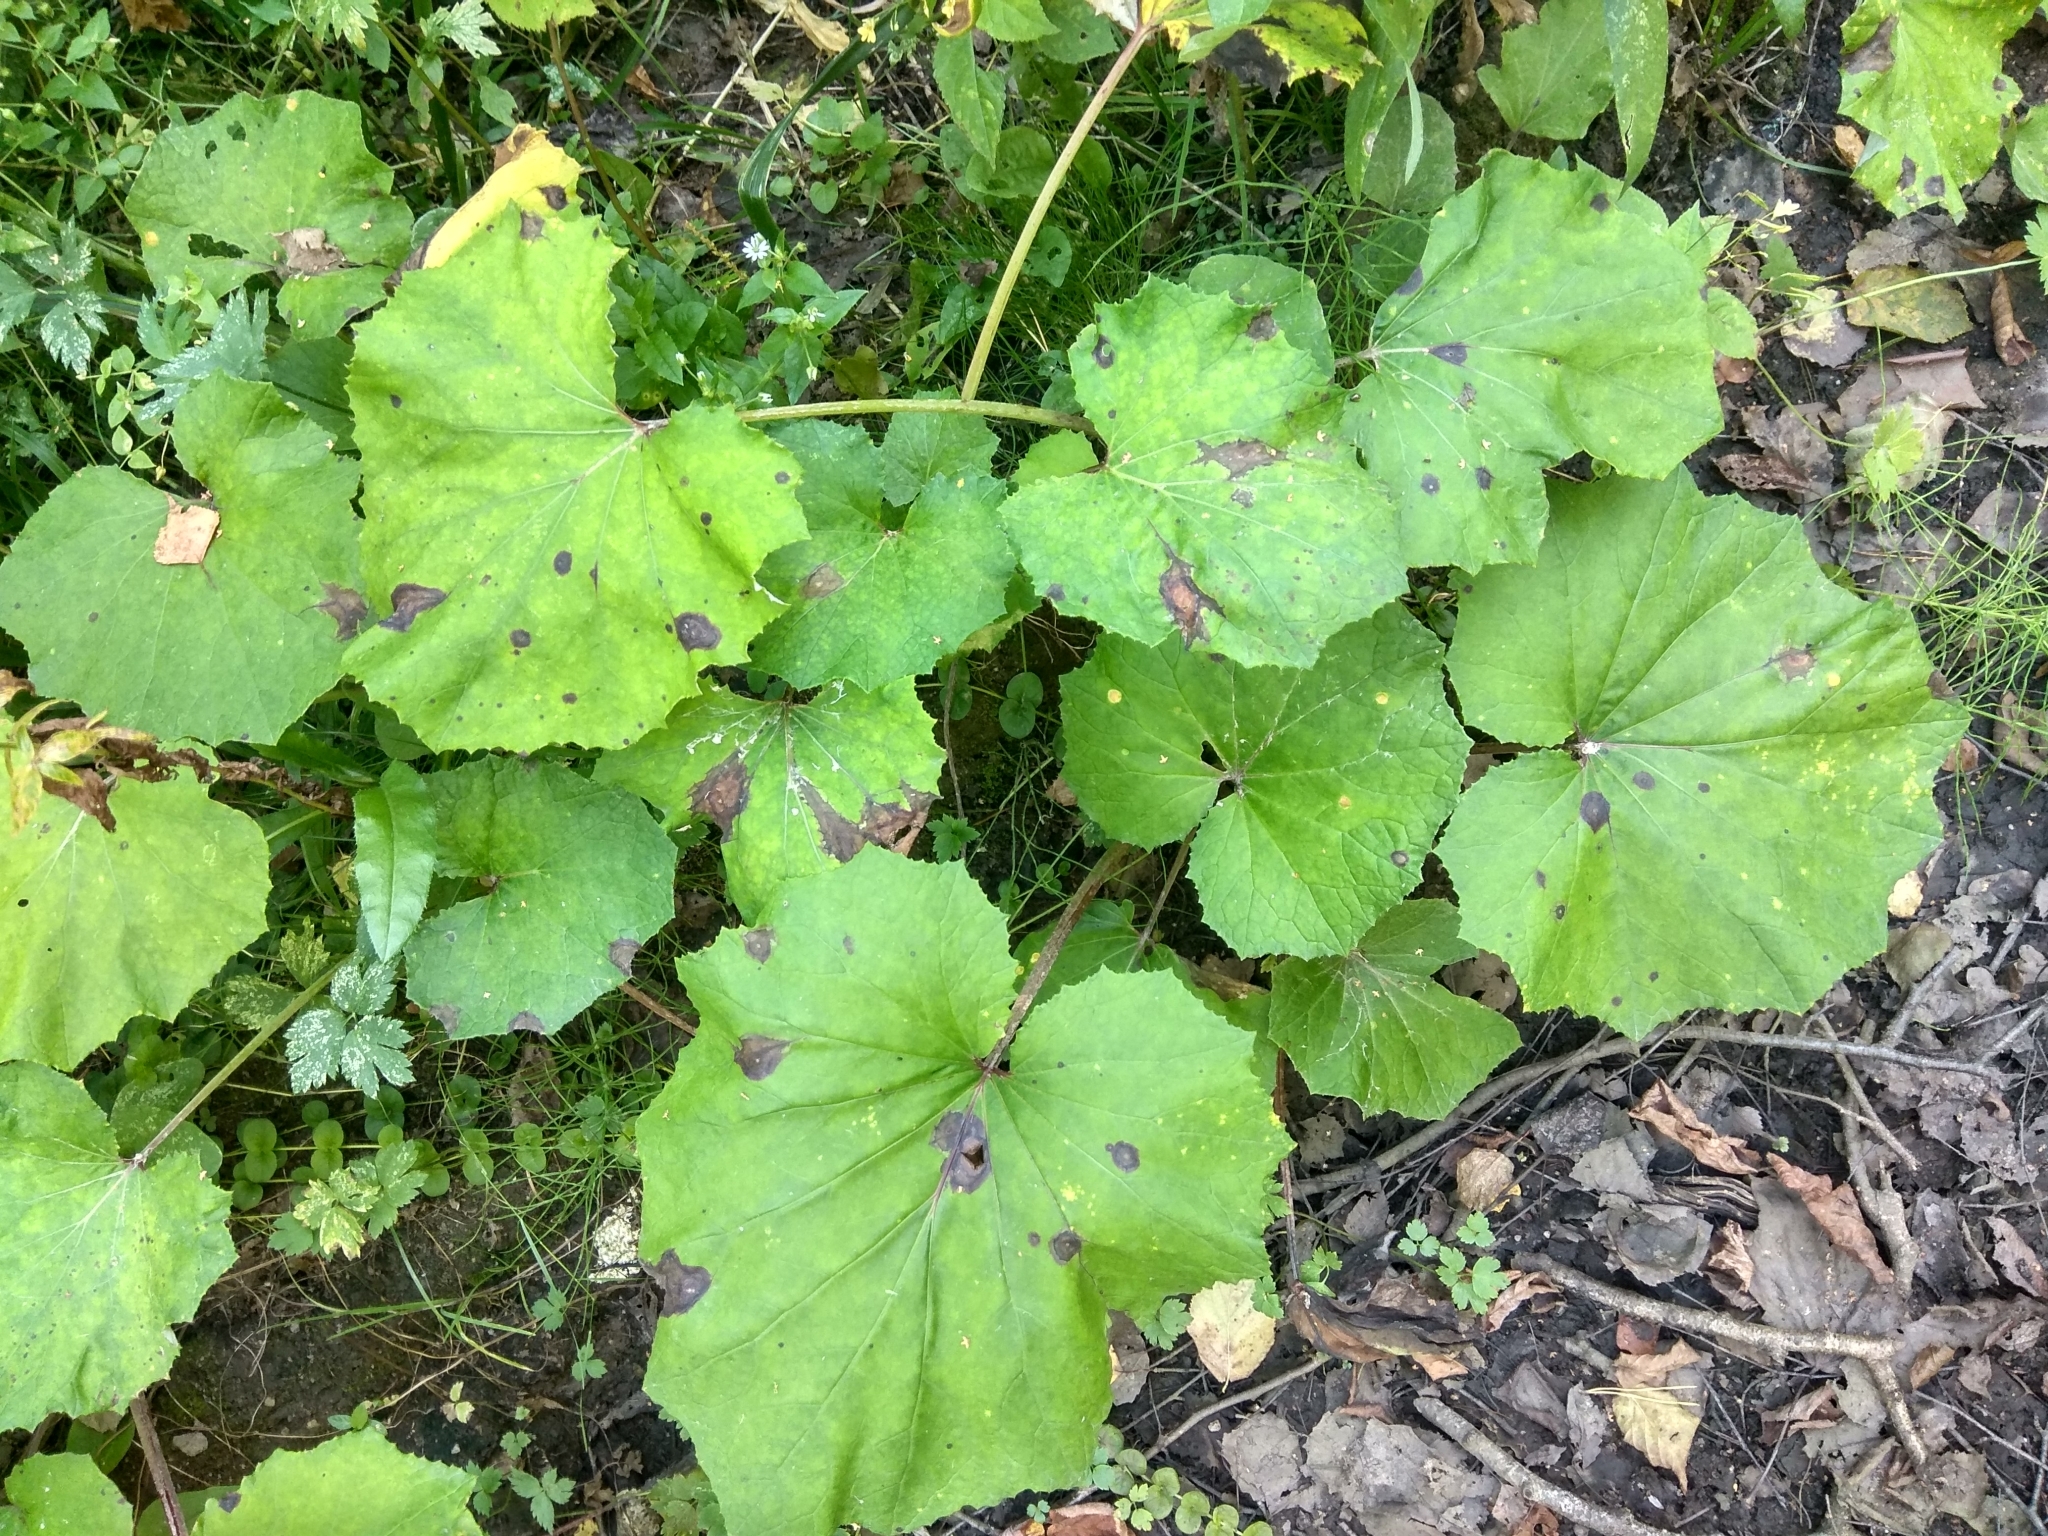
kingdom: Plantae
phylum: Tracheophyta
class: Magnoliopsida
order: Asterales
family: Asteraceae
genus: Tussilago
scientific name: Tussilago farfara
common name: Coltsfoot
